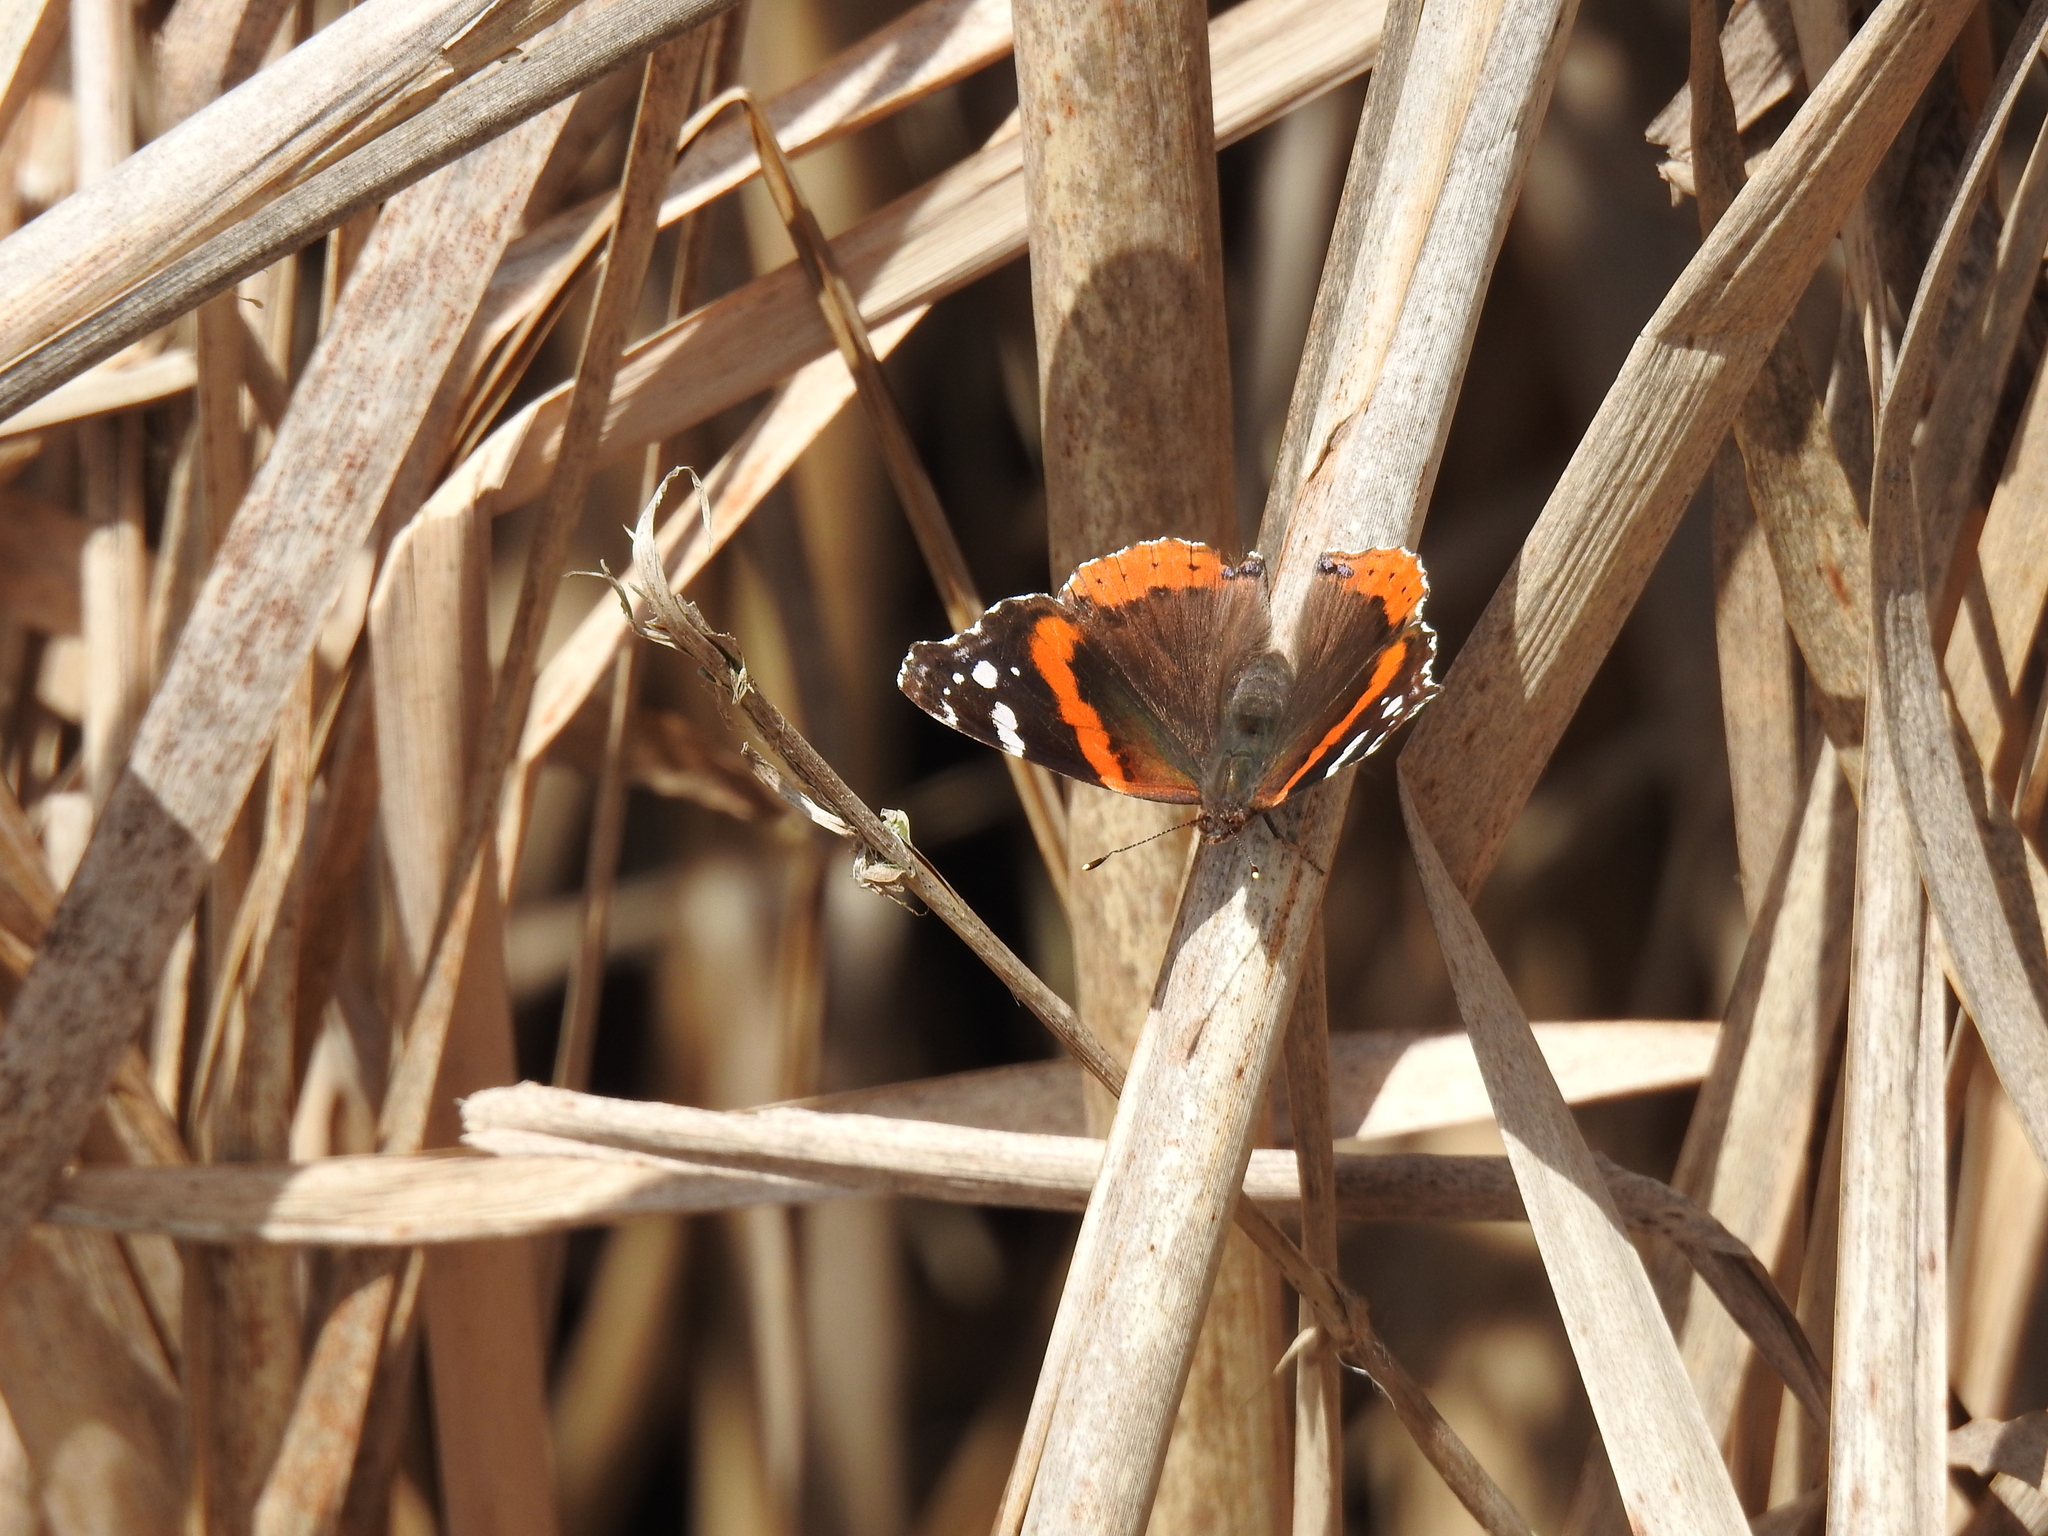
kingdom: Animalia
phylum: Arthropoda
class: Insecta
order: Lepidoptera
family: Nymphalidae
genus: Vanessa
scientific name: Vanessa atalanta
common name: Red admiral
